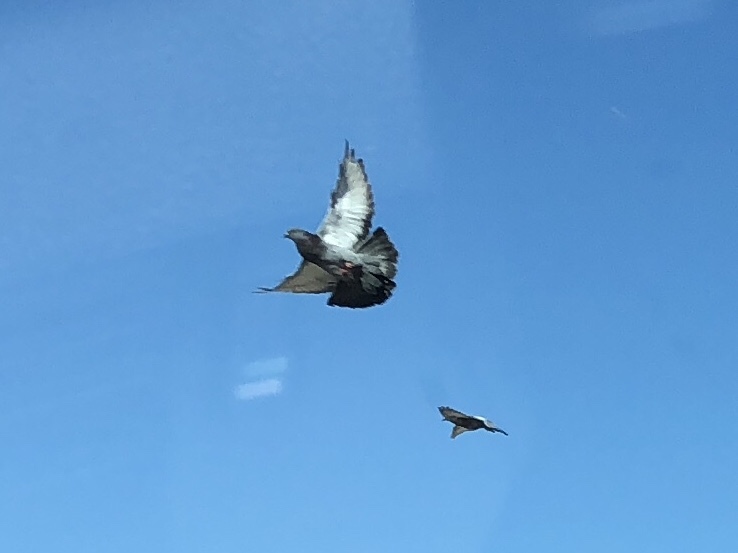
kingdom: Animalia
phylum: Chordata
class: Aves
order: Columbiformes
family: Columbidae
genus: Columba
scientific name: Columba livia
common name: Rock pigeon
